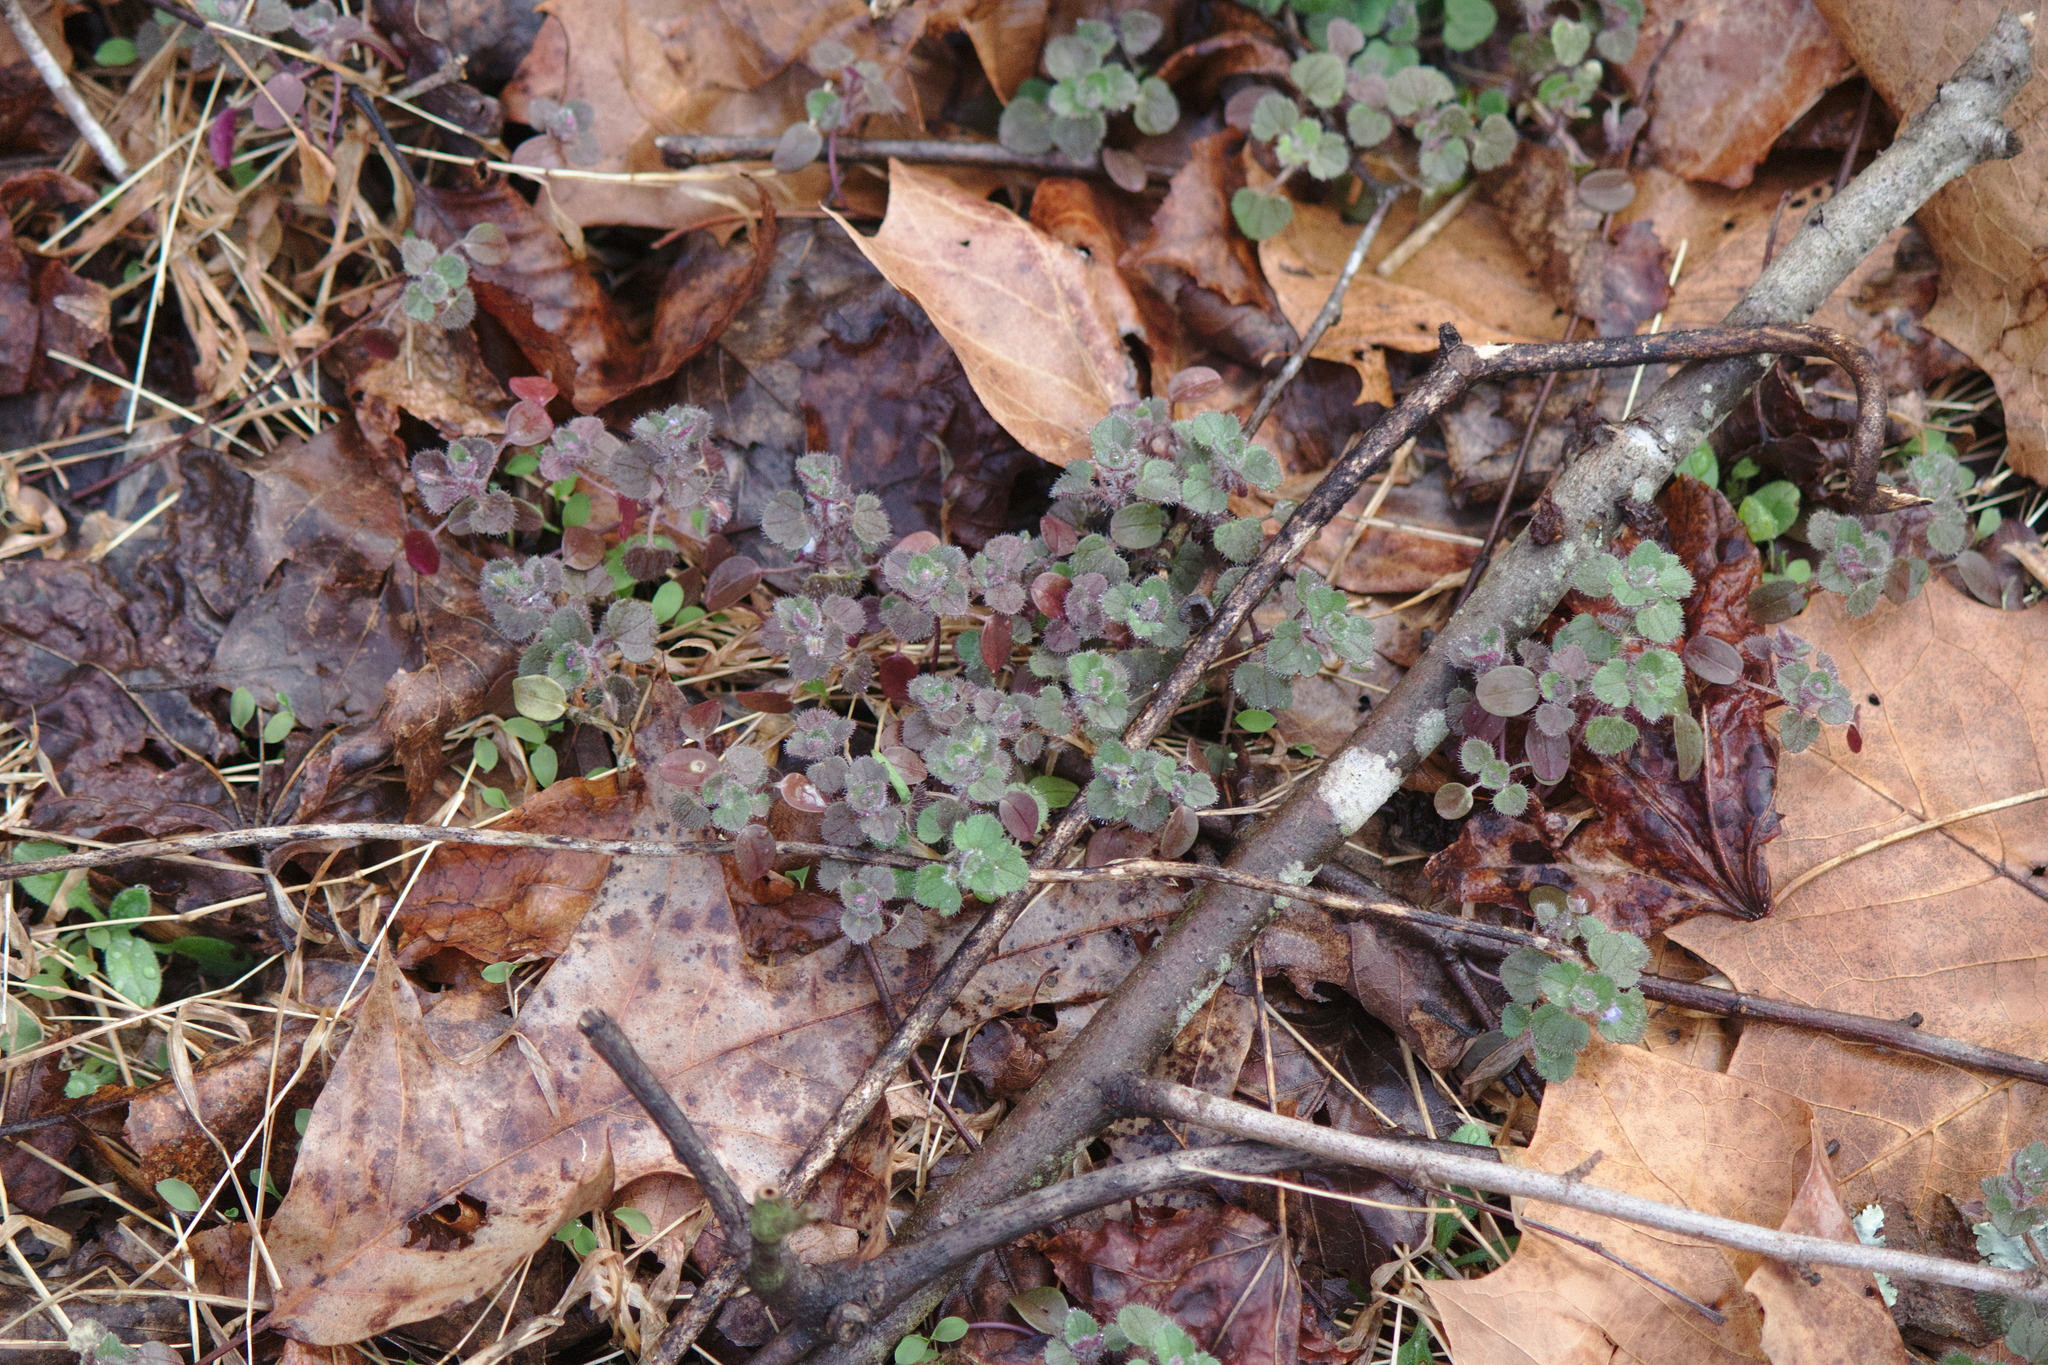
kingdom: Plantae
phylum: Tracheophyta
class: Magnoliopsida
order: Lamiales
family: Plantaginaceae
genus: Veronica
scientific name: Veronica hederifolia
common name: Ivy-leaved speedwell
